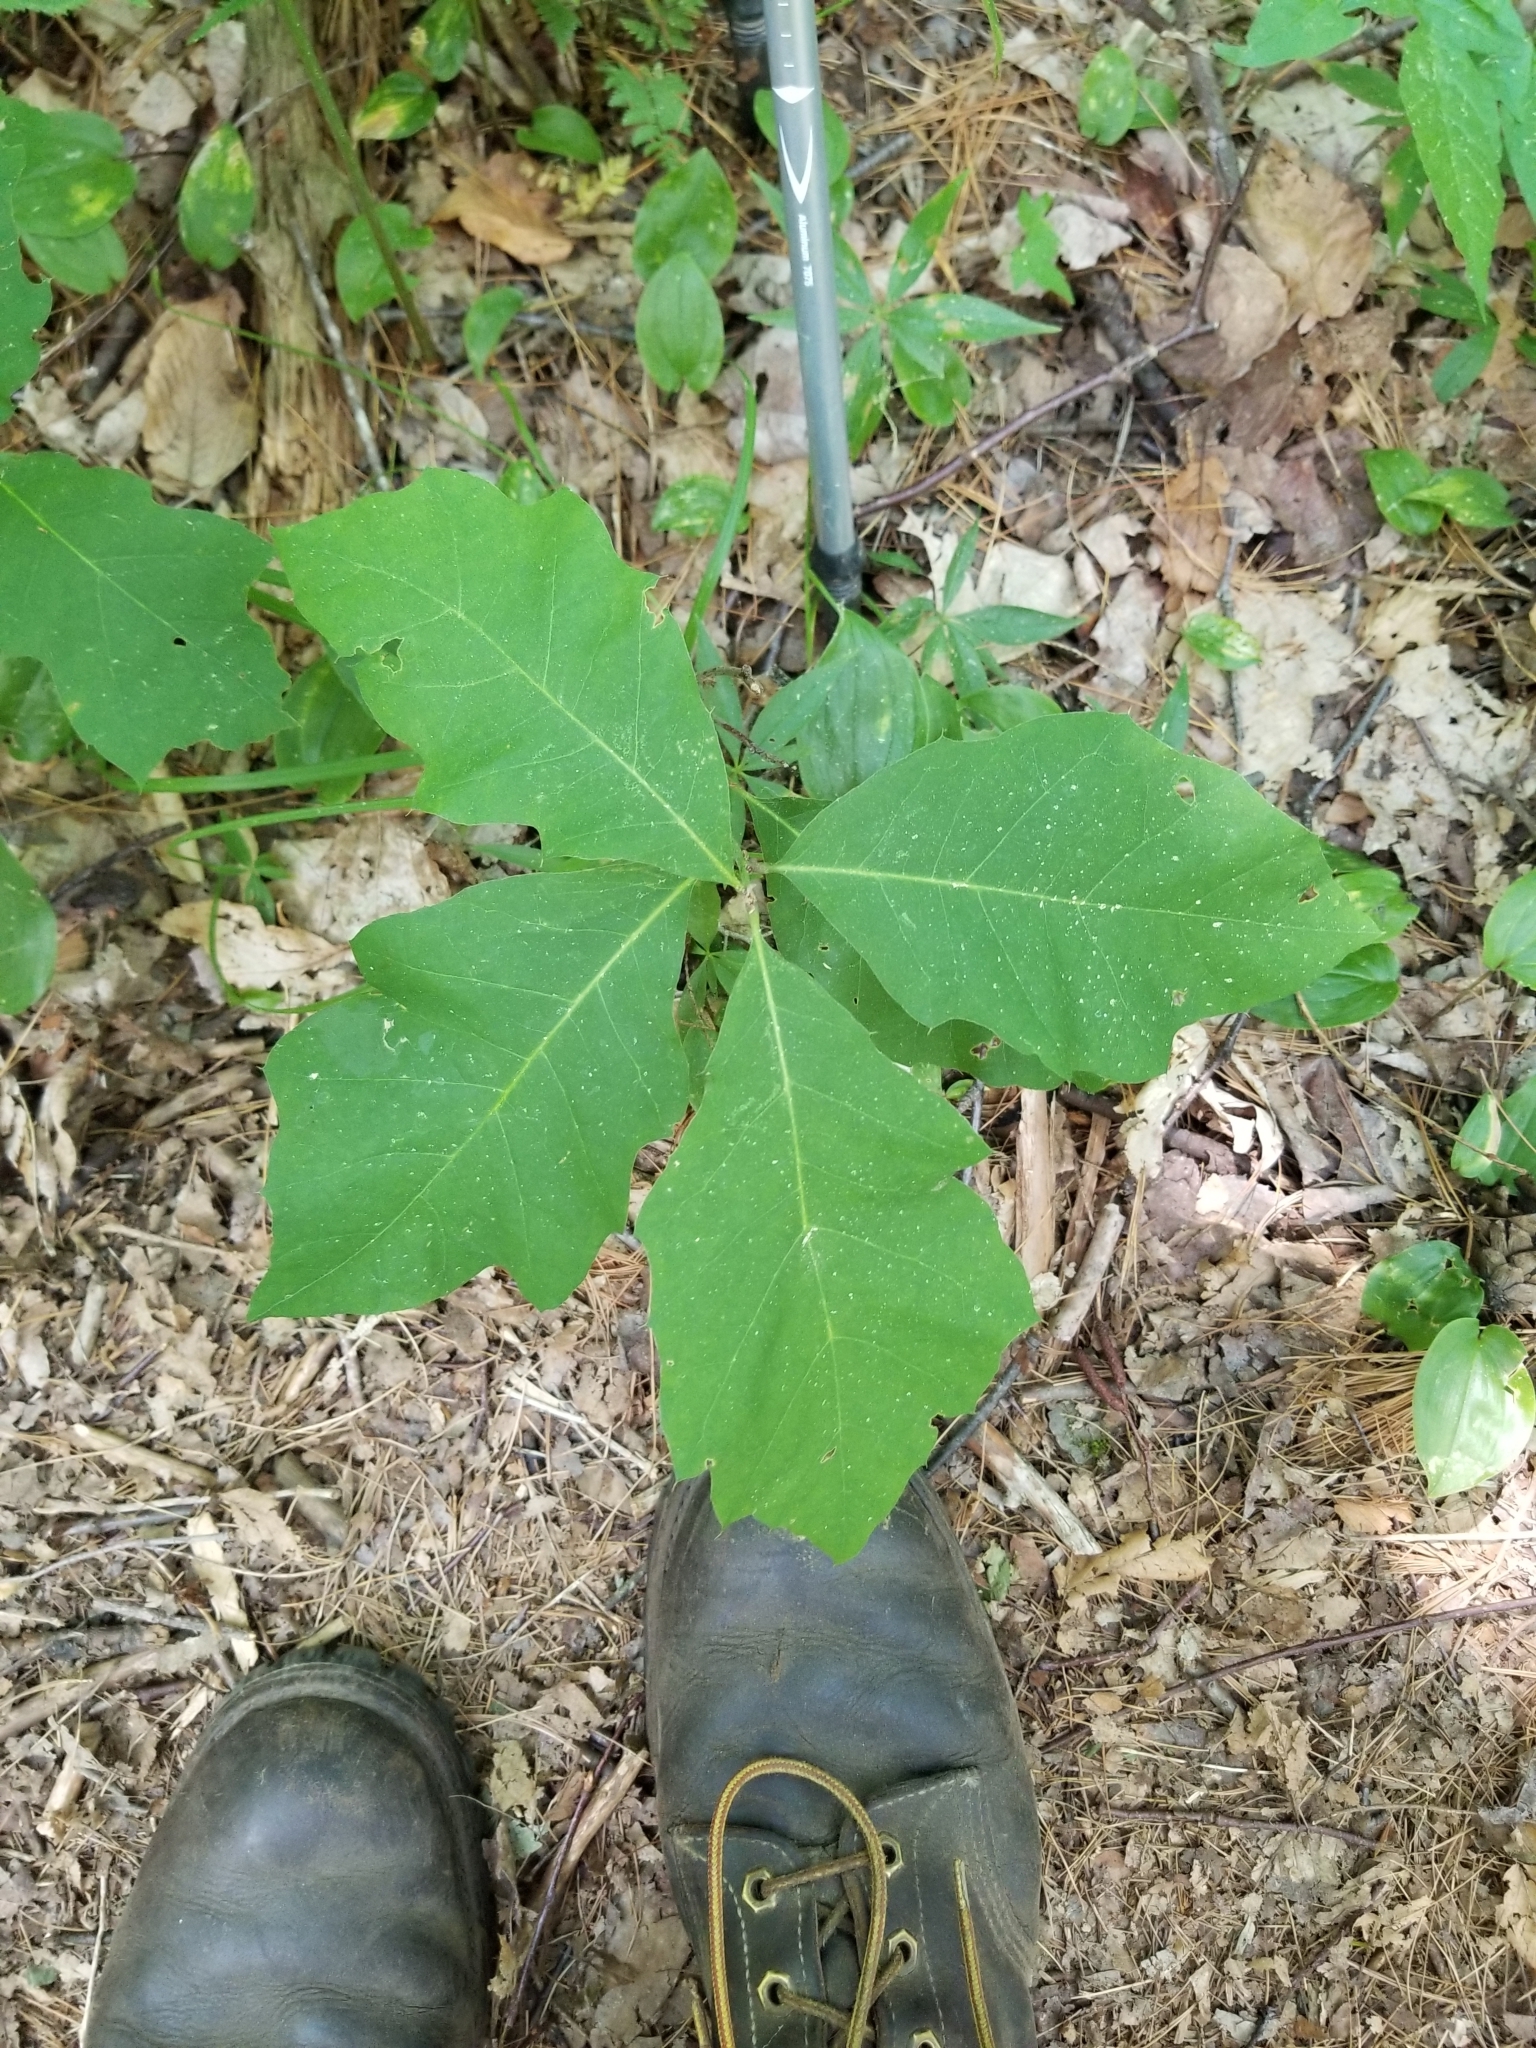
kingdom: Plantae
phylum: Tracheophyta
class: Magnoliopsida
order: Fagales
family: Fagaceae
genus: Quercus
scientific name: Quercus rubra
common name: Red oak
